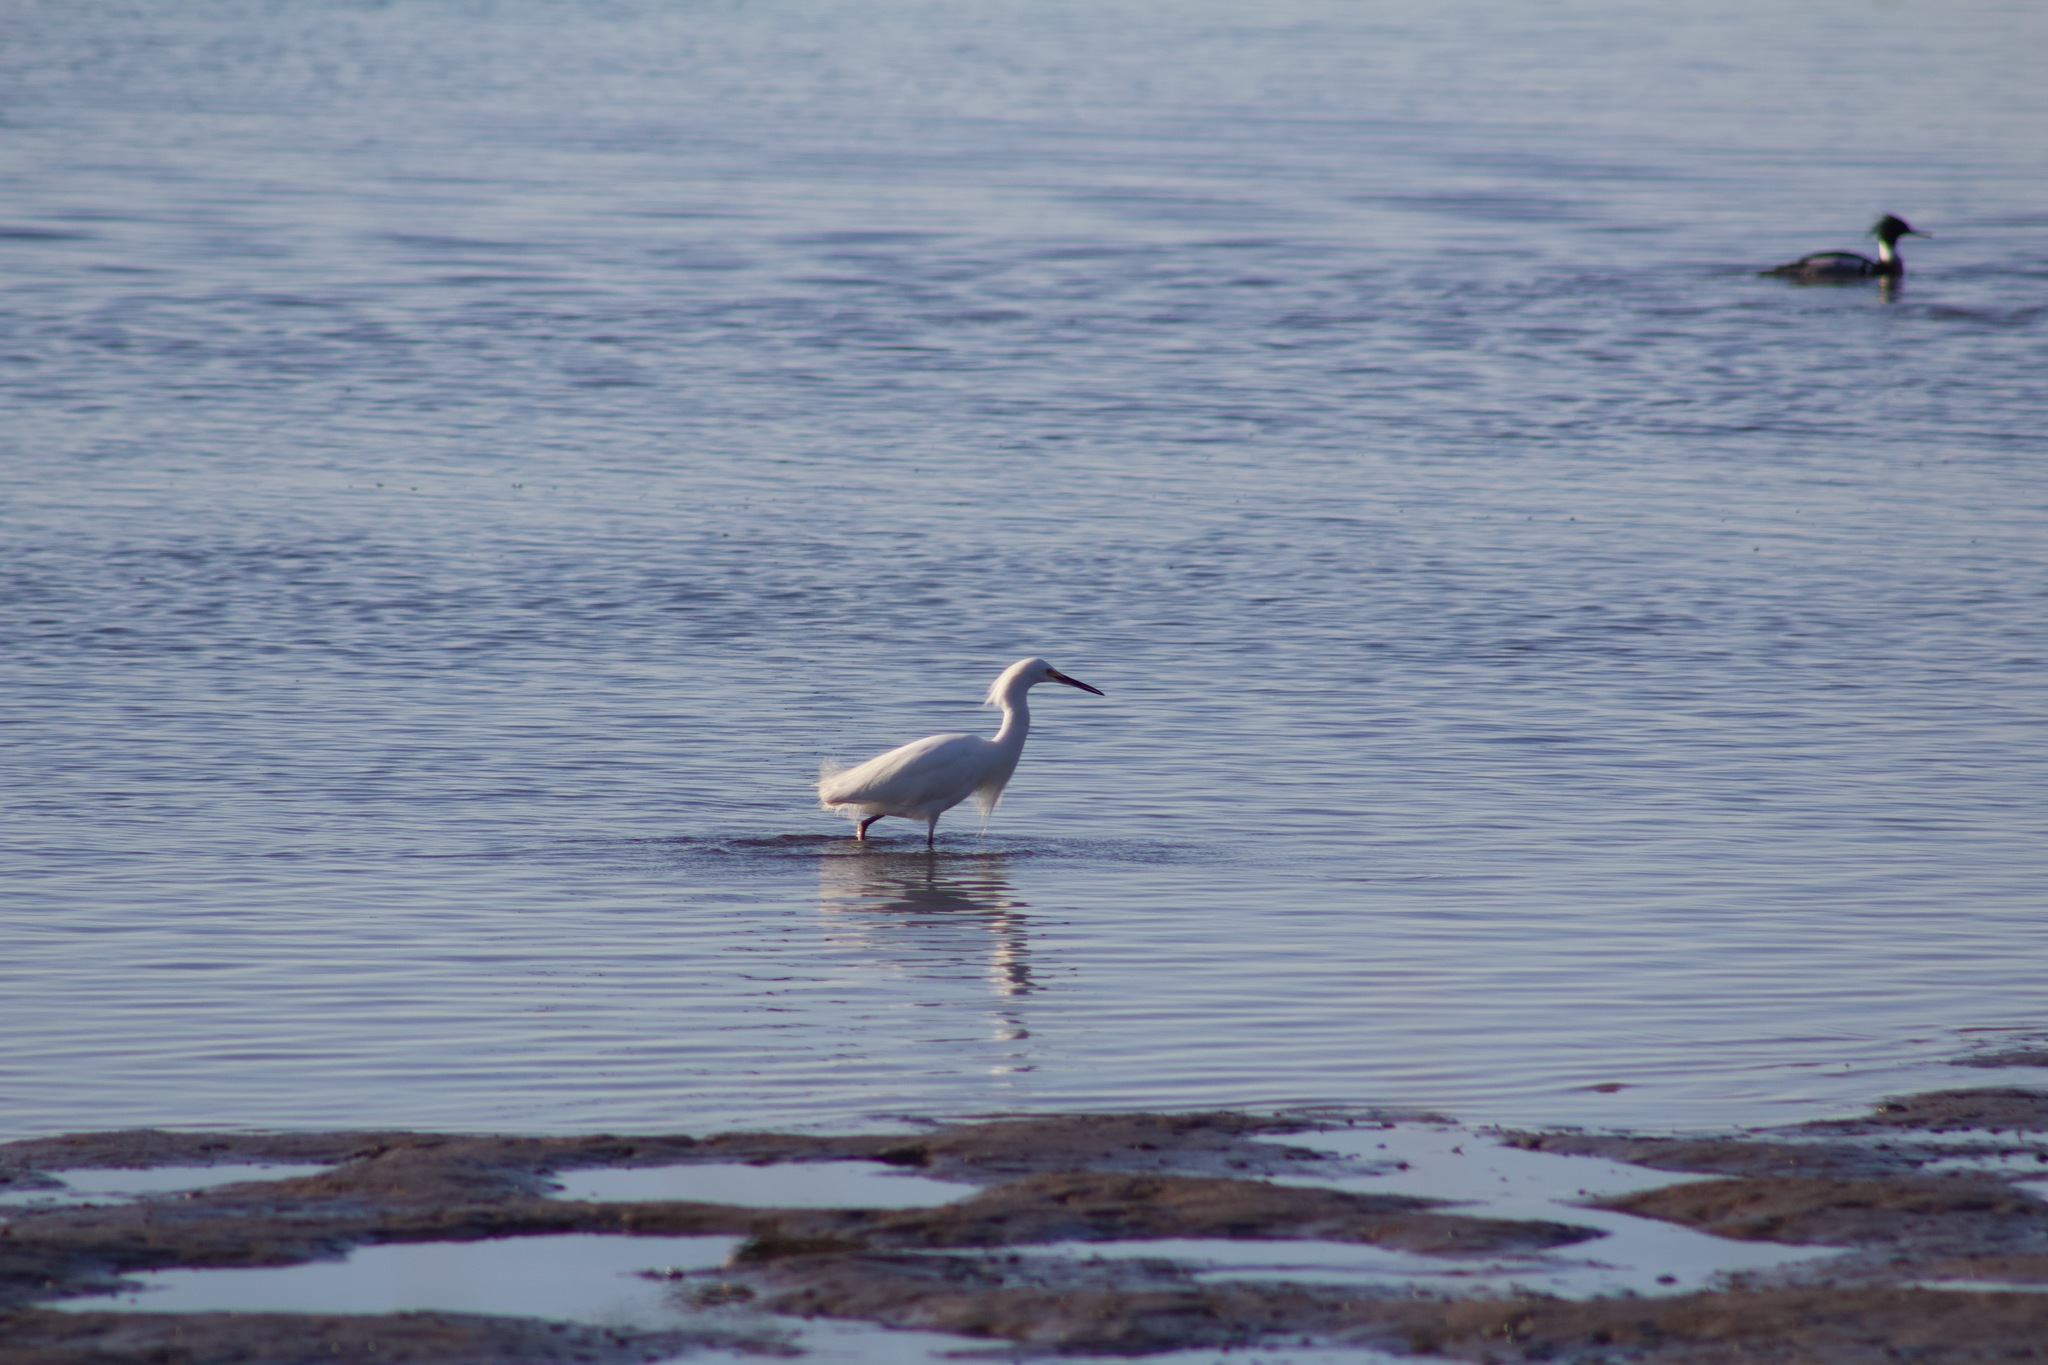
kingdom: Animalia
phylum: Chordata
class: Aves
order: Pelecaniformes
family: Ardeidae
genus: Egretta
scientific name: Egretta thula
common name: Snowy egret
